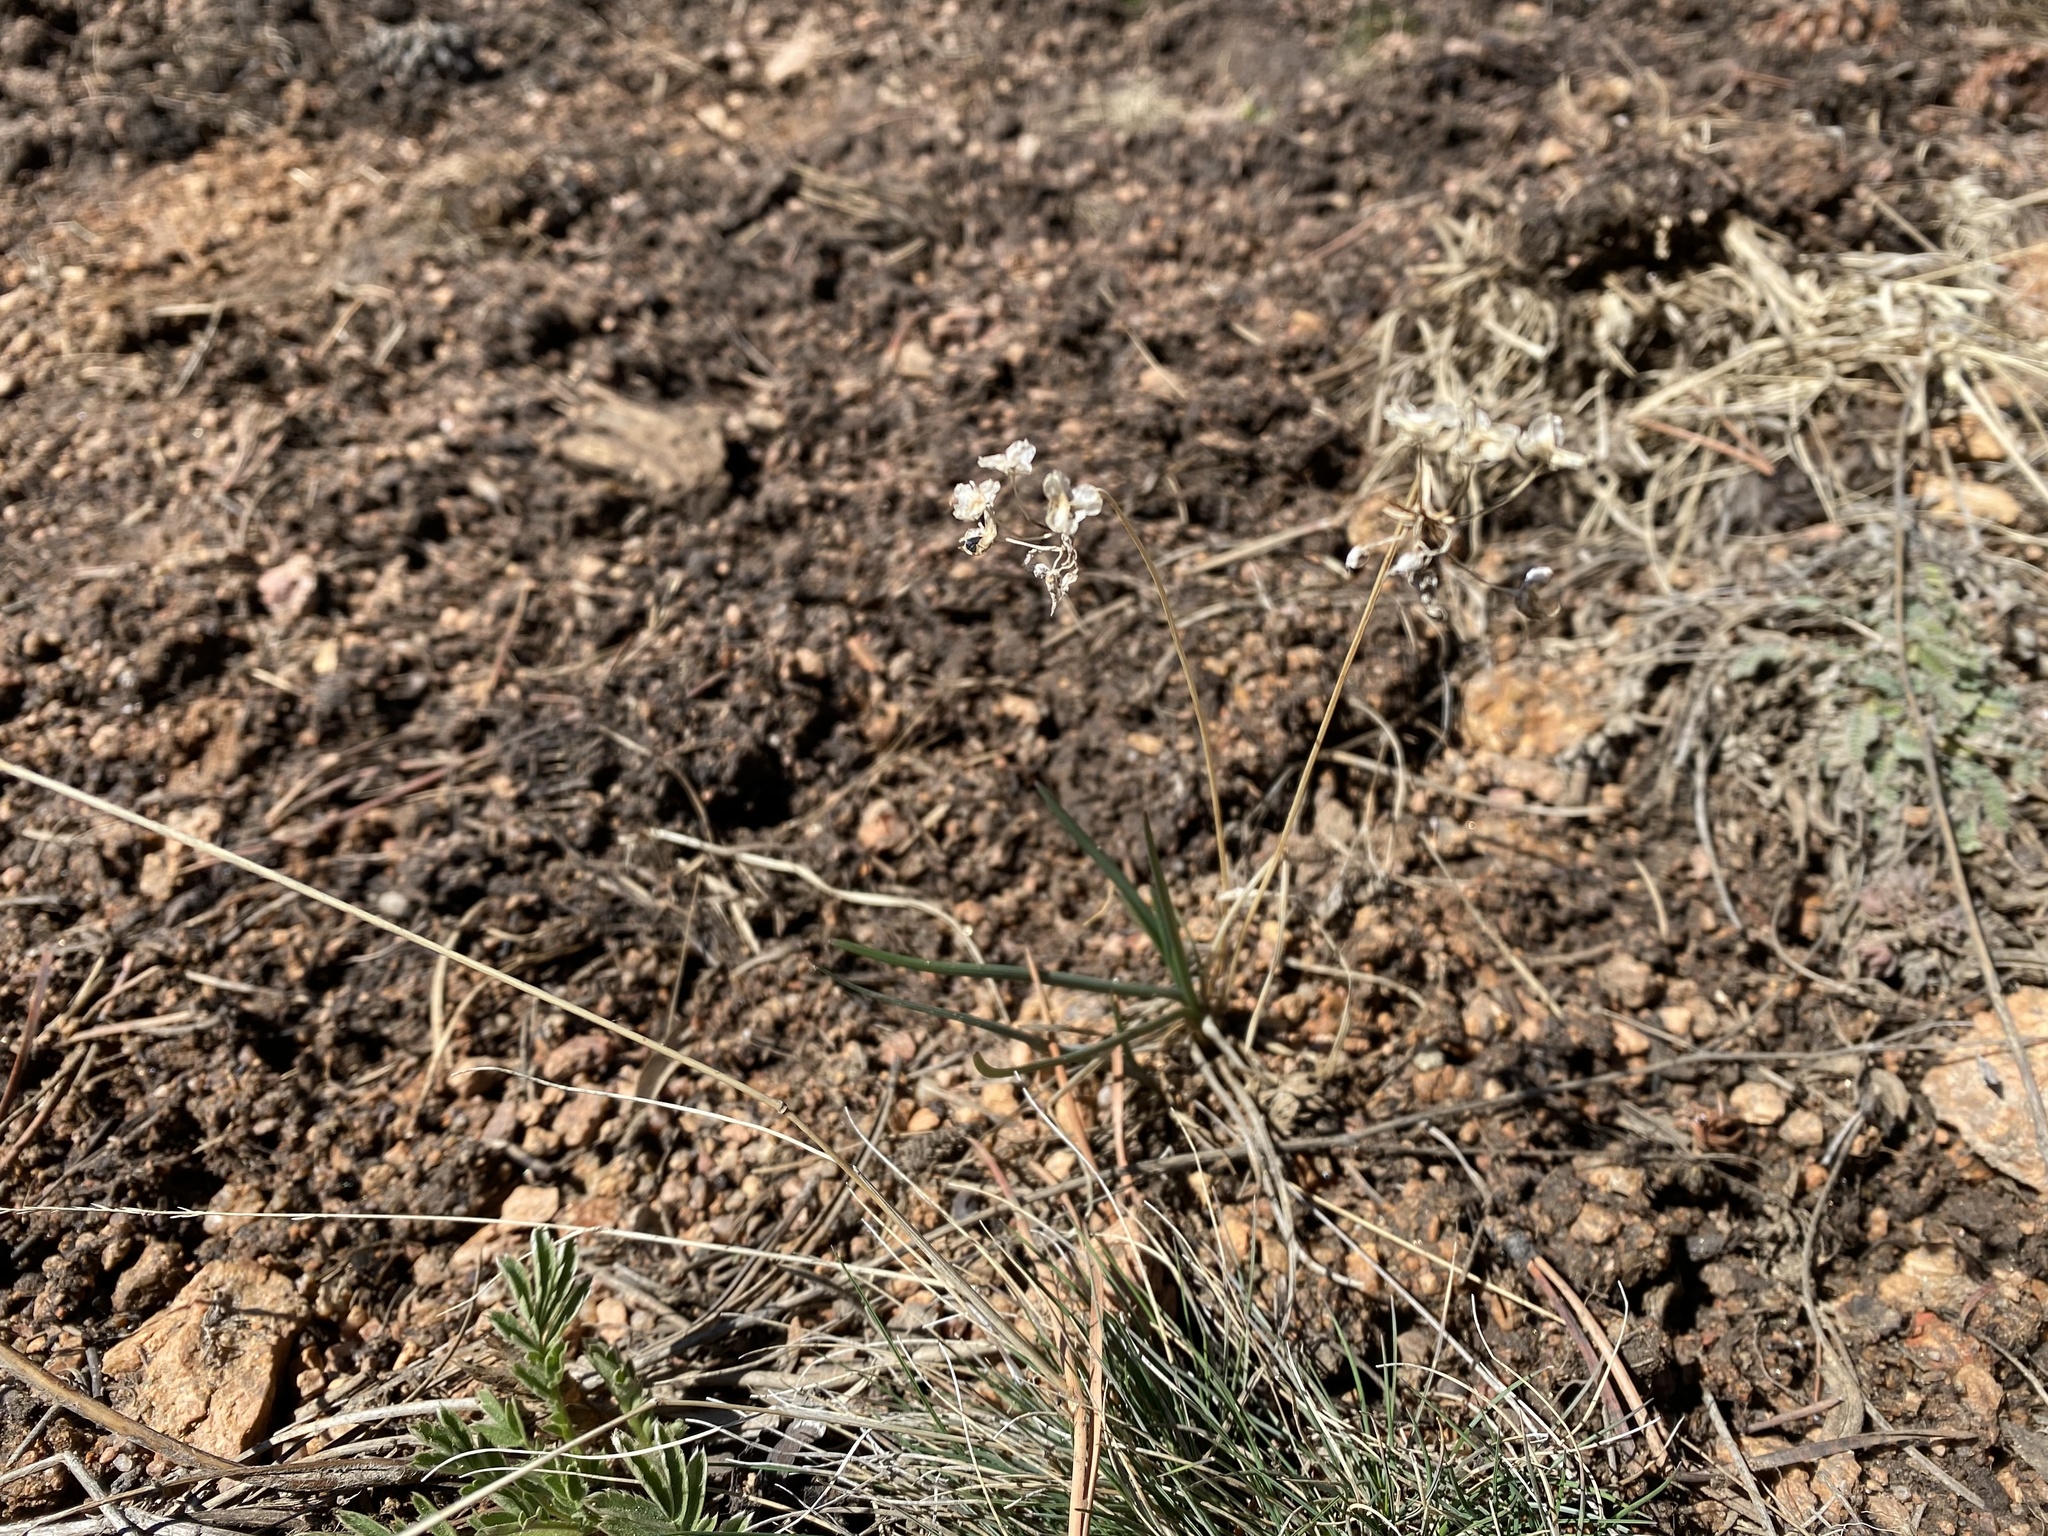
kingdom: Plantae
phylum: Tracheophyta
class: Liliopsida
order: Asparagales
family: Amaryllidaceae
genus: Allium
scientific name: Allium cernuum
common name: Nodding onion
